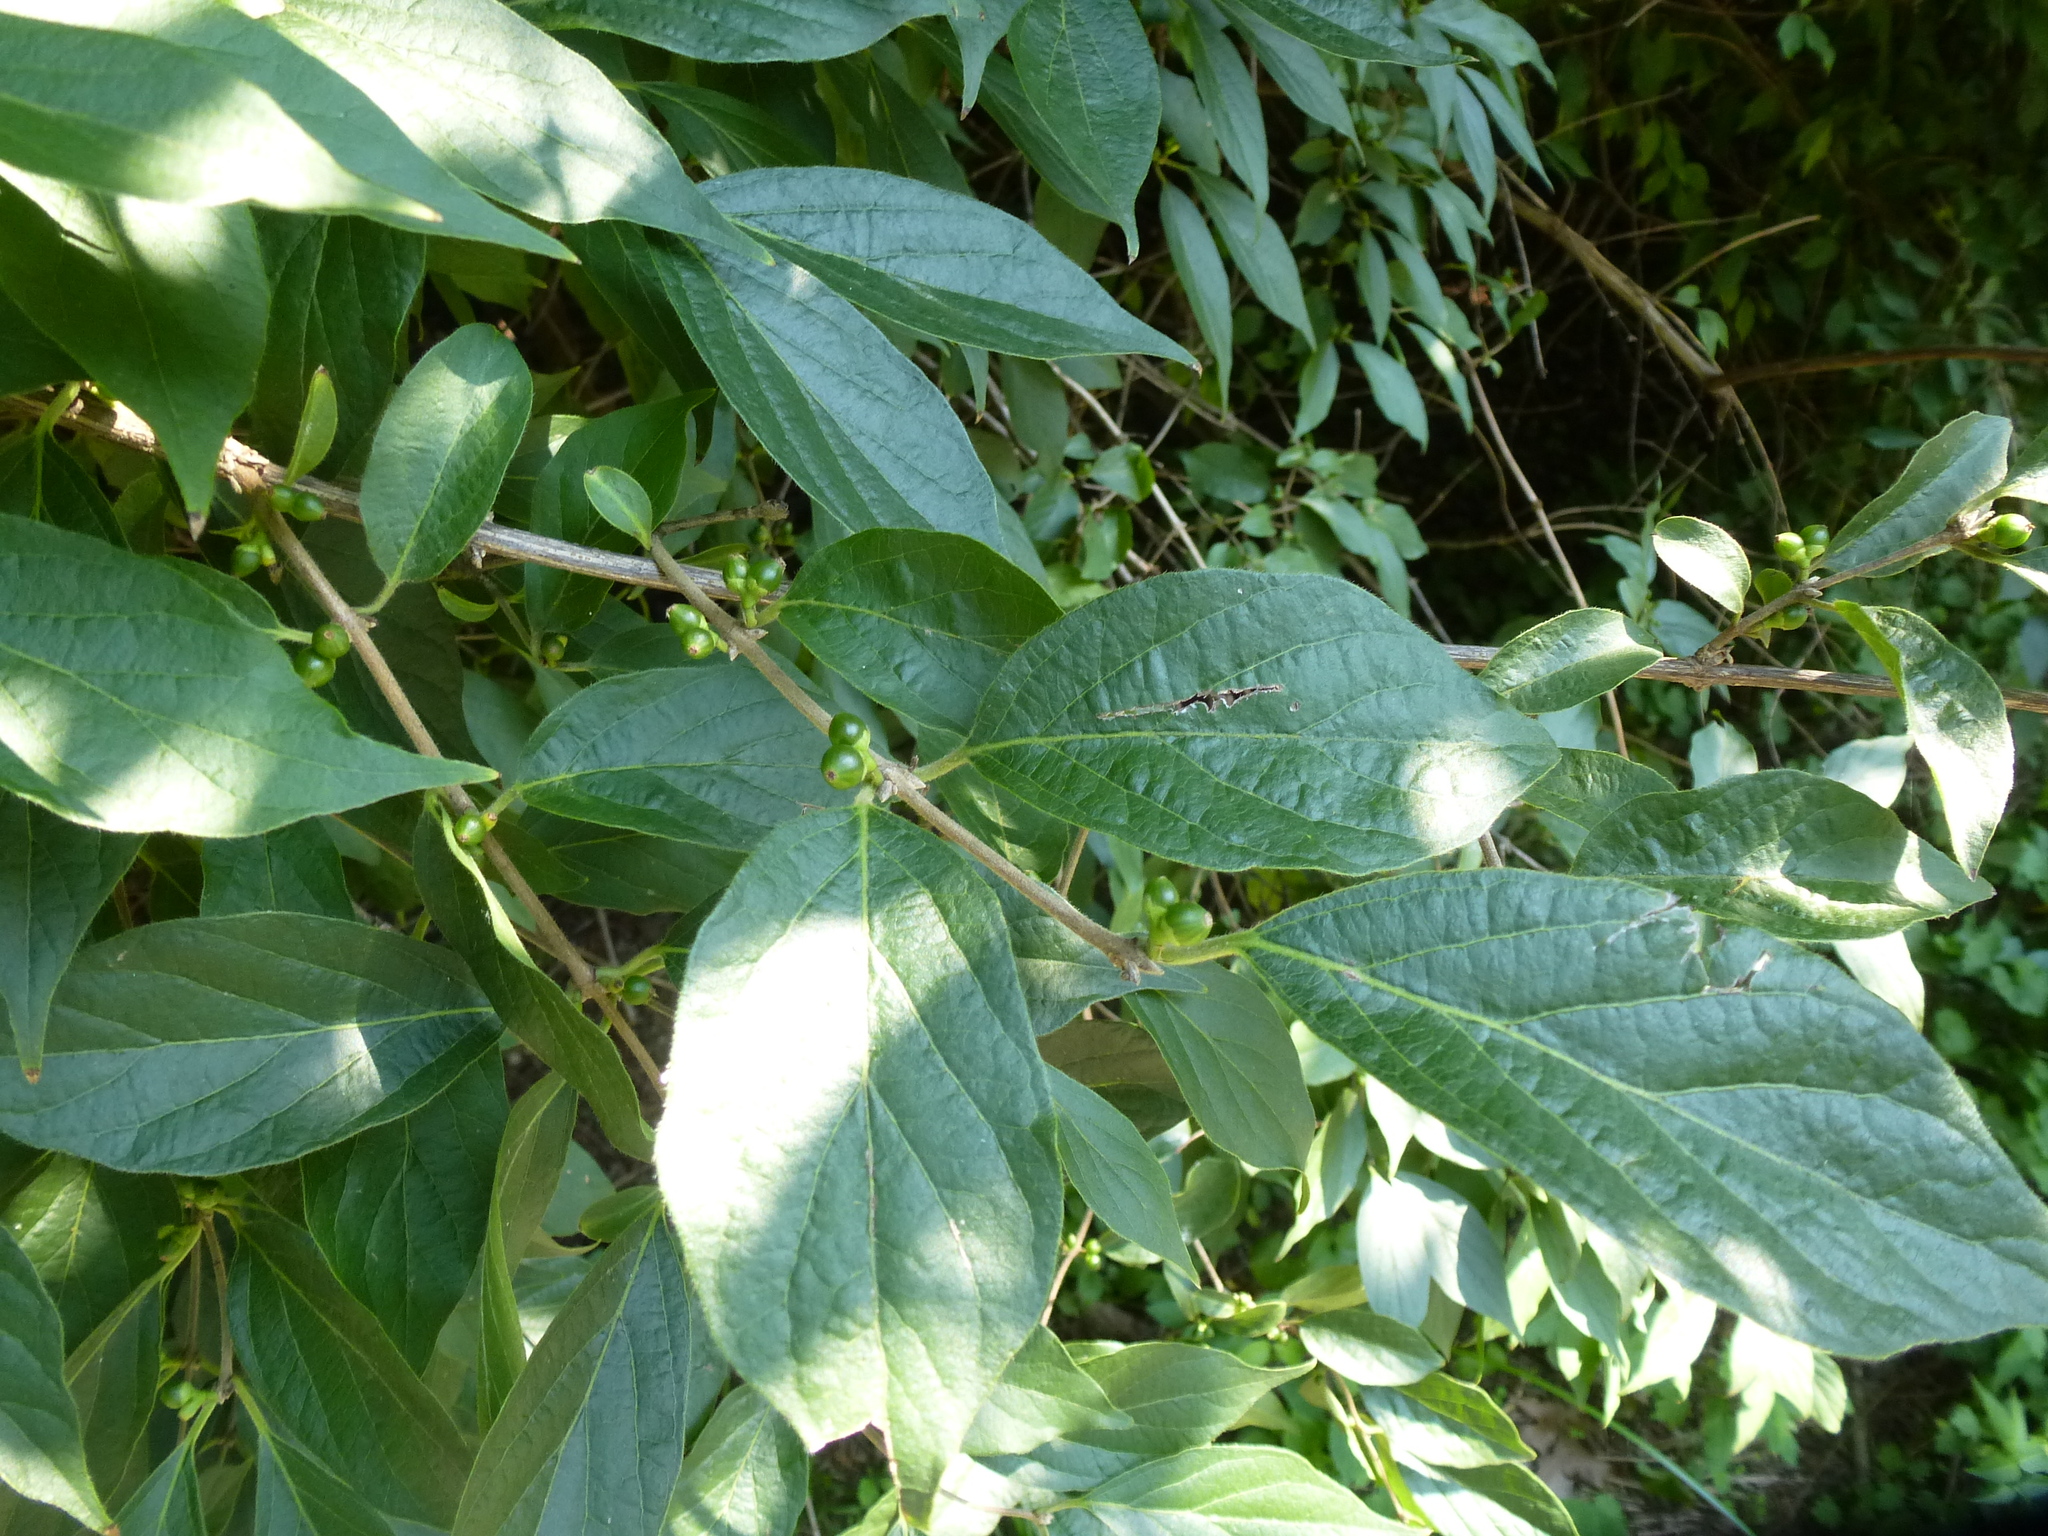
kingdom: Plantae
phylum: Tracheophyta
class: Magnoliopsida
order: Dipsacales
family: Caprifoliaceae
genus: Lonicera
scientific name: Lonicera maackii
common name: Amur honeysuckle
